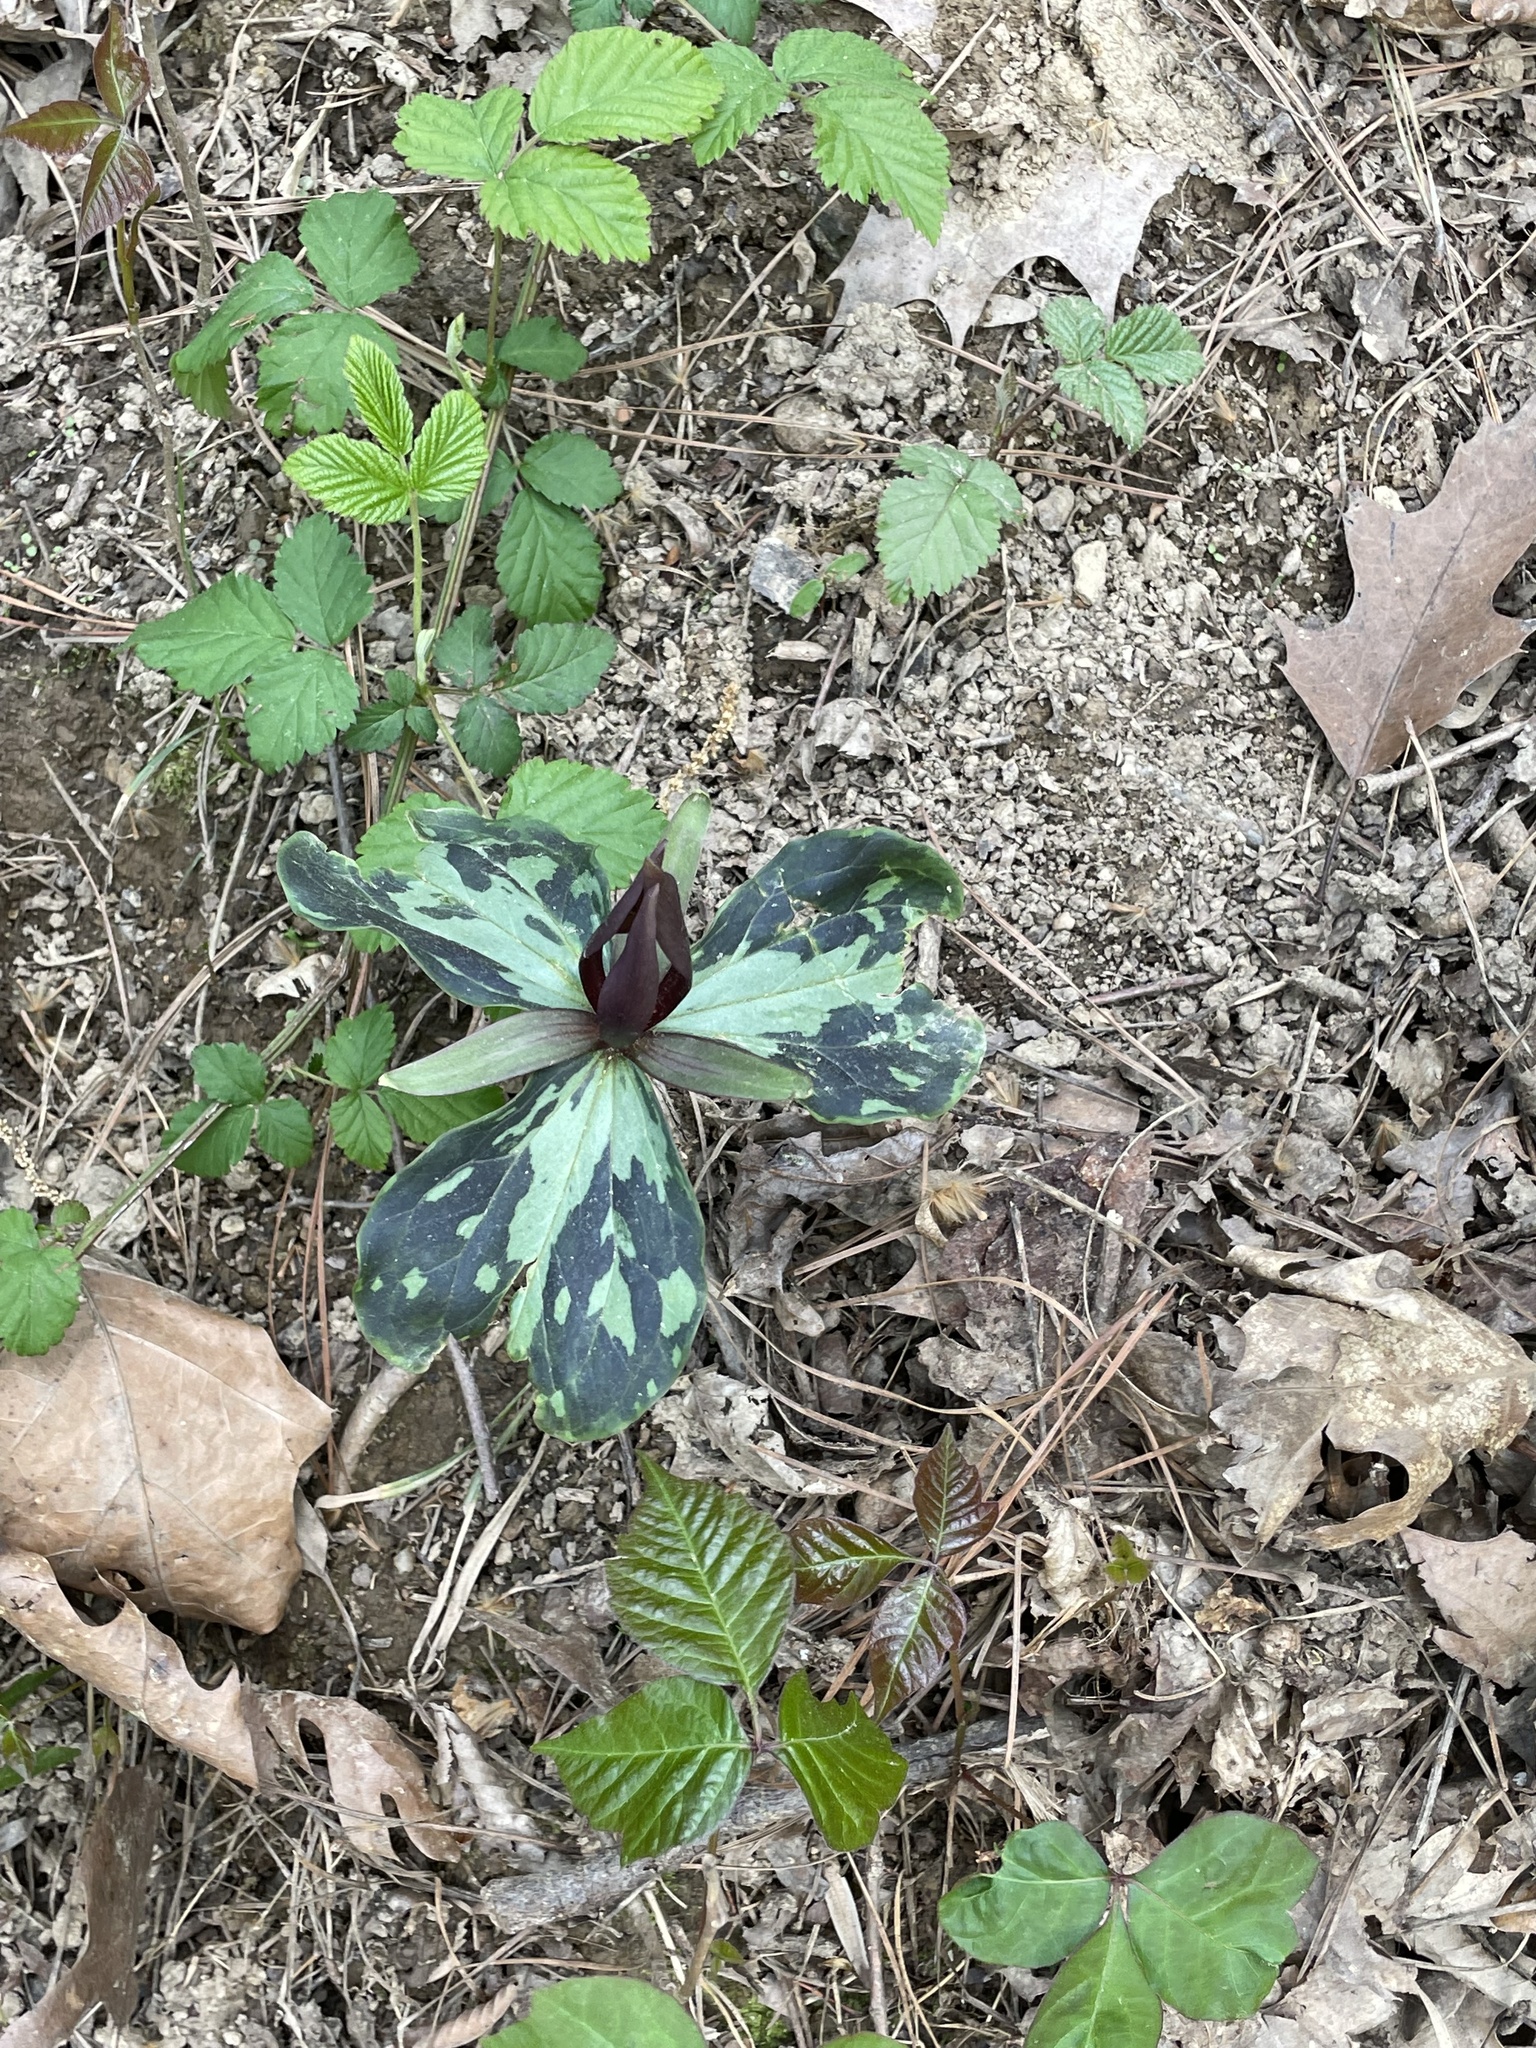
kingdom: Plantae
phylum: Tracheophyta
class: Liliopsida
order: Liliales
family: Melanthiaceae
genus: Trillium
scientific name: Trillium cuneatum
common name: Cuneate trillium
